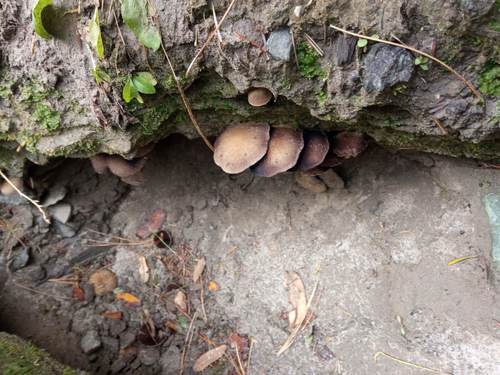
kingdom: Fungi
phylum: Basidiomycota
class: Agaricomycetes
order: Agaricales
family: Psathyrellaceae
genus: Lacrymaria
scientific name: Lacrymaria lacrymabunda
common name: Weeping widow
